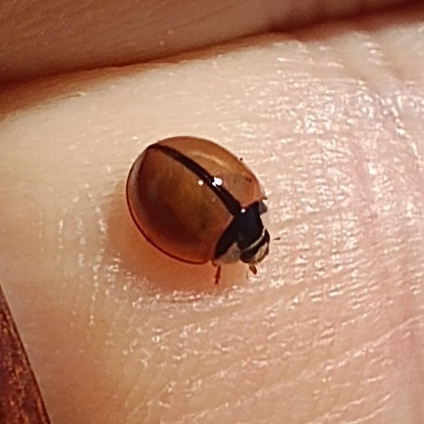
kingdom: Animalia
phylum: Arthropoda
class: Insecta
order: Coleoptera
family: Coccinellidae
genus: Cheilomenes
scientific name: Cheilomenes propinqua
